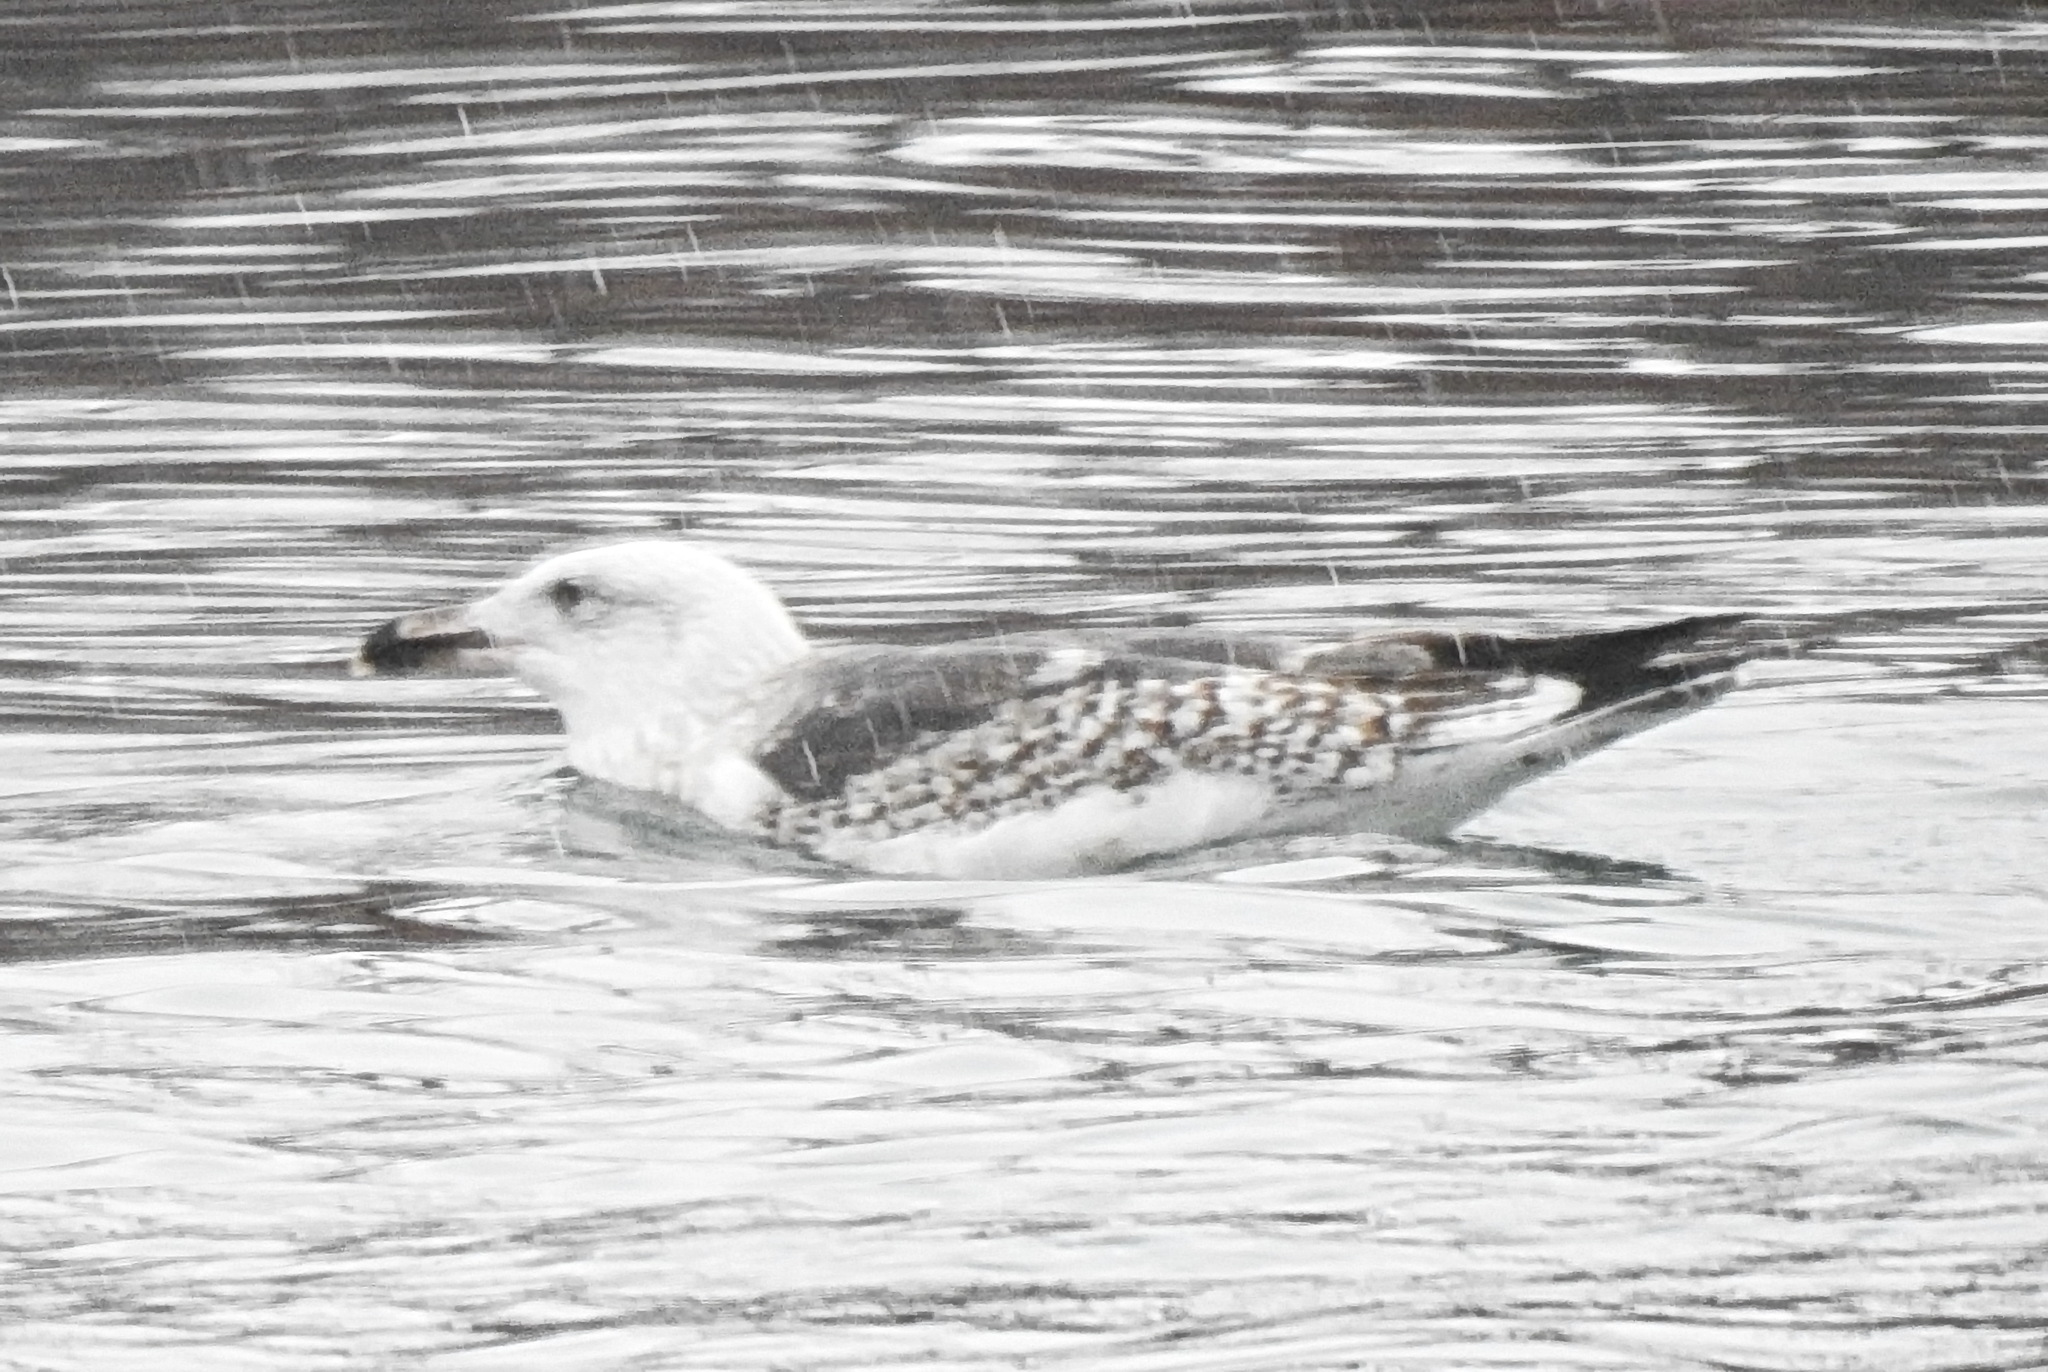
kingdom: Animalia
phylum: Chordata
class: Aves
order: Charadriiformes
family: Laridae
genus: Larus
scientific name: Larus marinus
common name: Great black-backed gull
